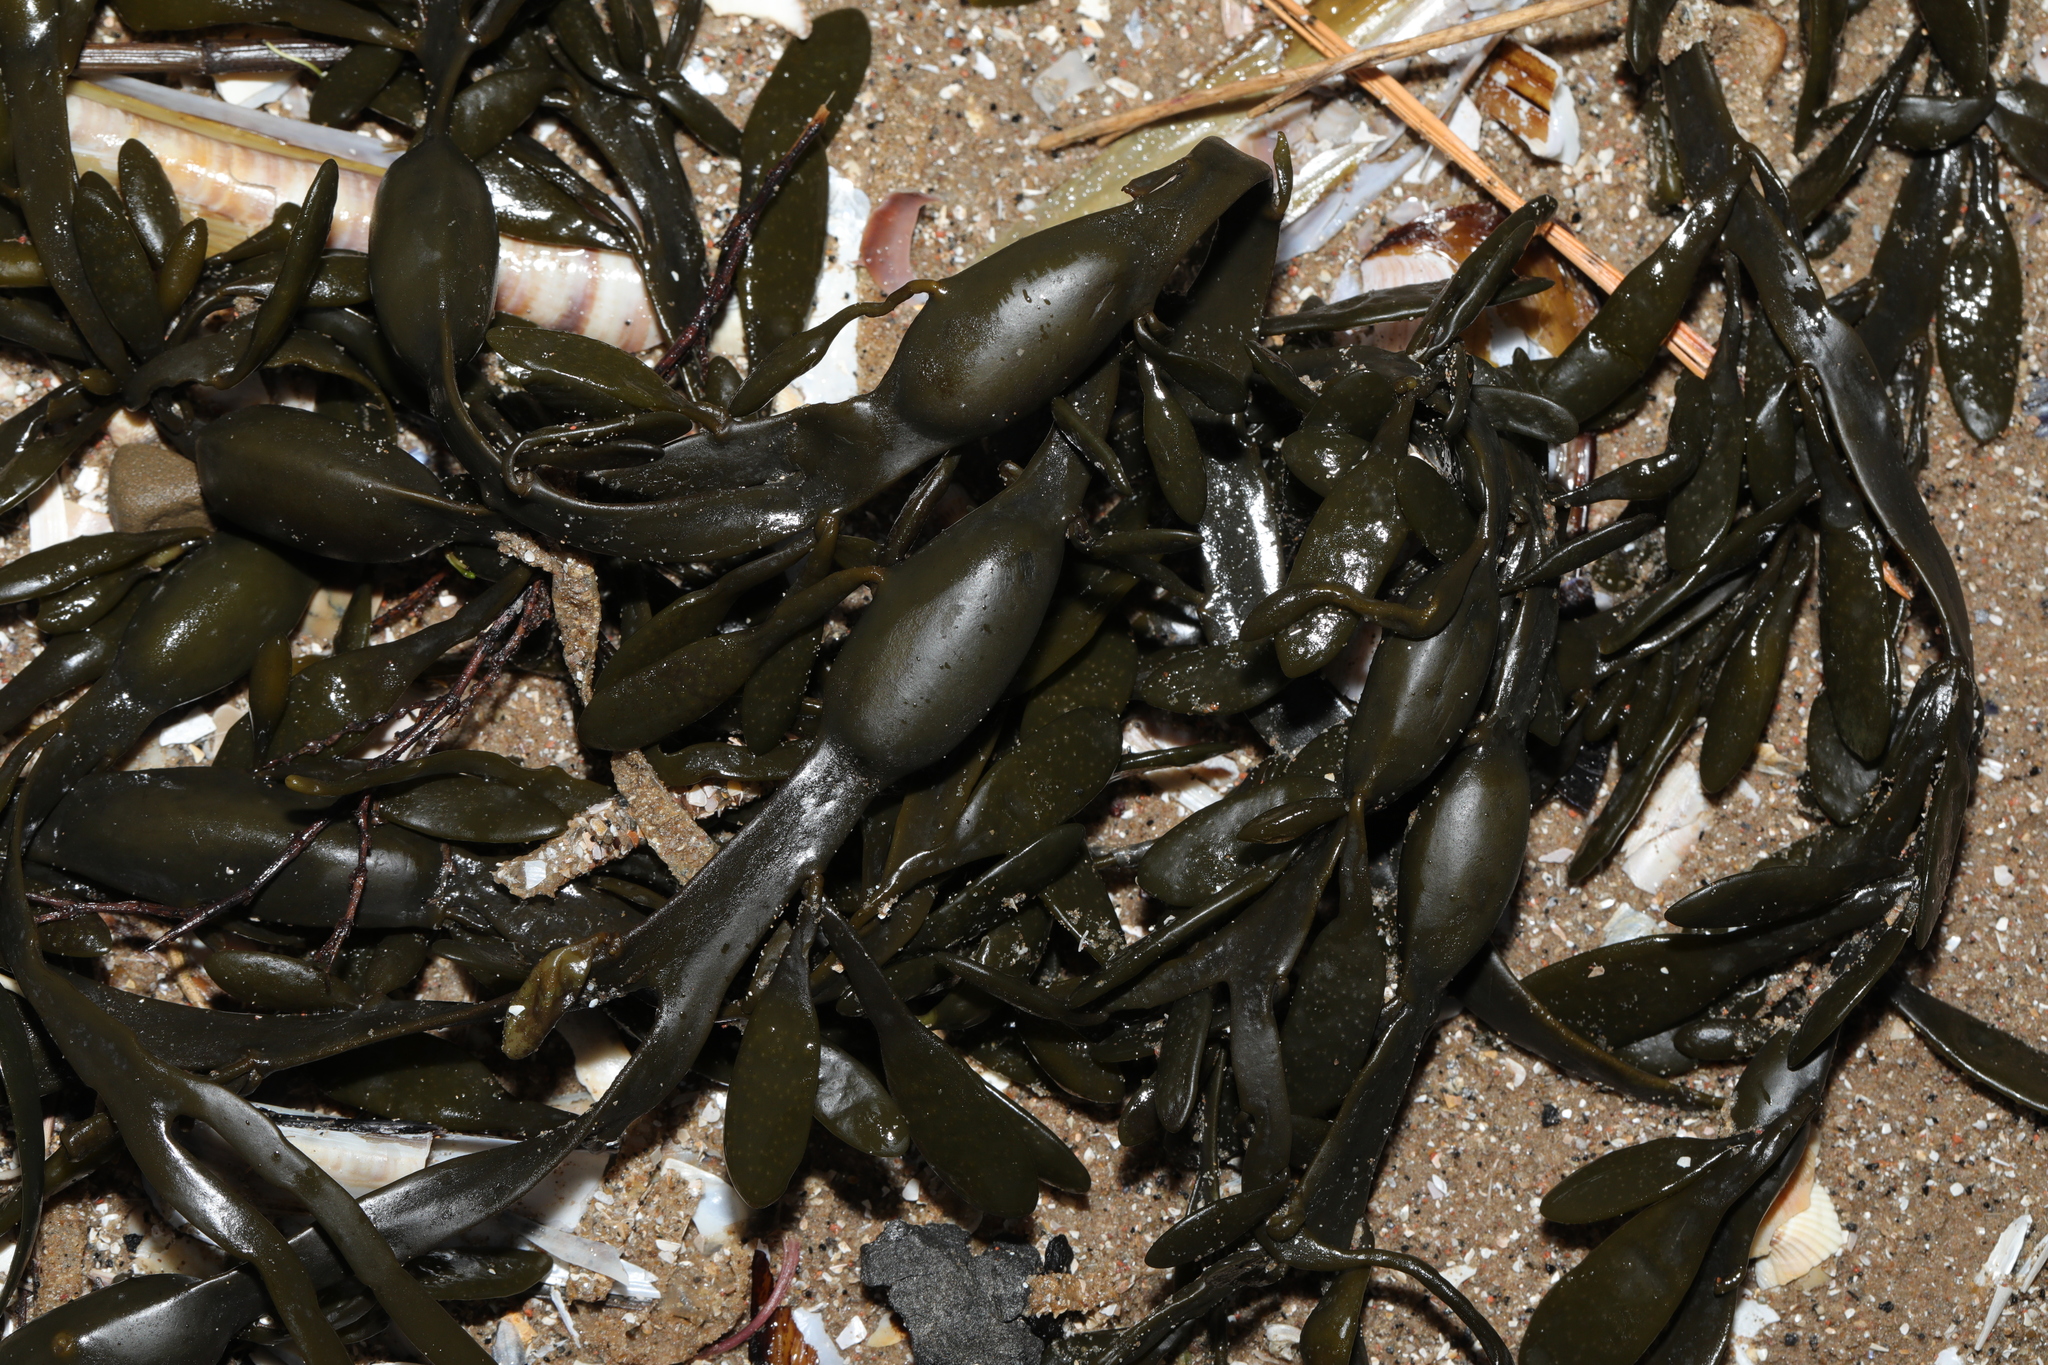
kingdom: Chromista
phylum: Ochrophyta
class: Phaeophyceae
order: Fucales
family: Fucaceae
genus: Ascophyllum
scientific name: Ascophyllum nodosum
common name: Knotted wrack
